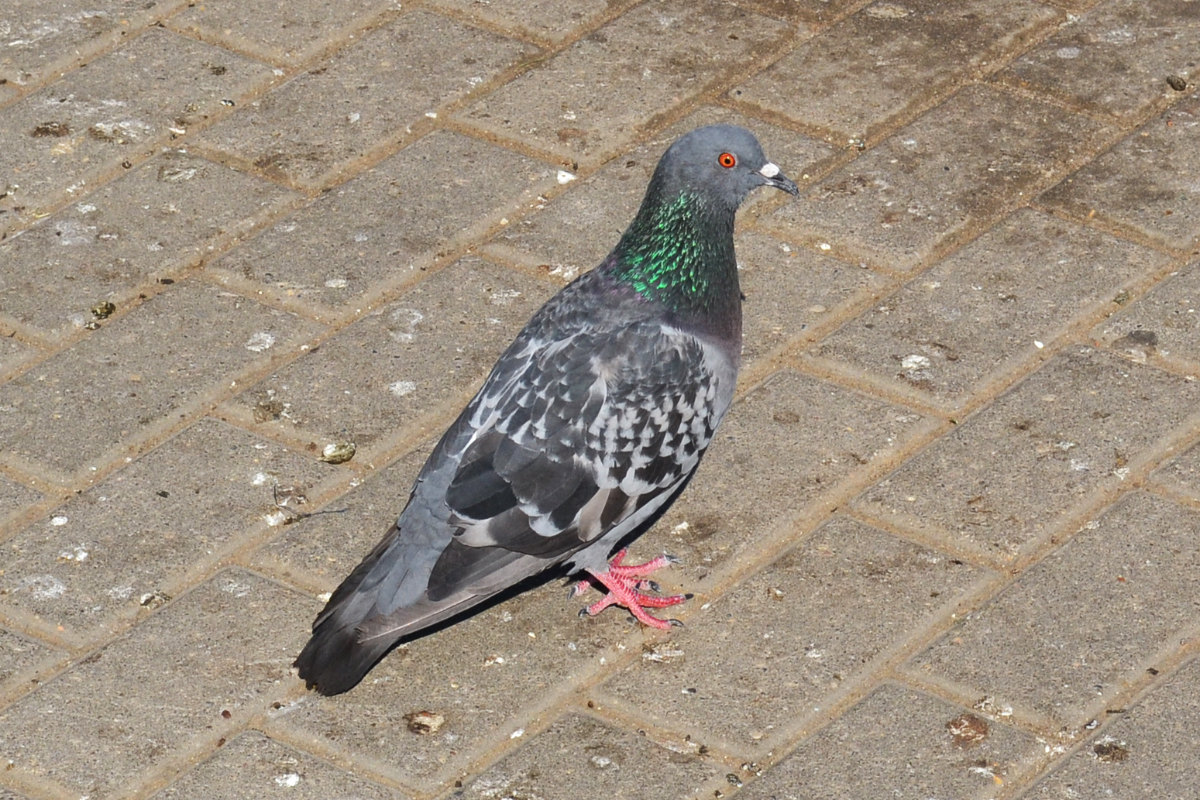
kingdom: Animalia
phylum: Chordata
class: Aves
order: Columbiformes
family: Columbidae
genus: Columba
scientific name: Columba livia
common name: Rock pigeon
